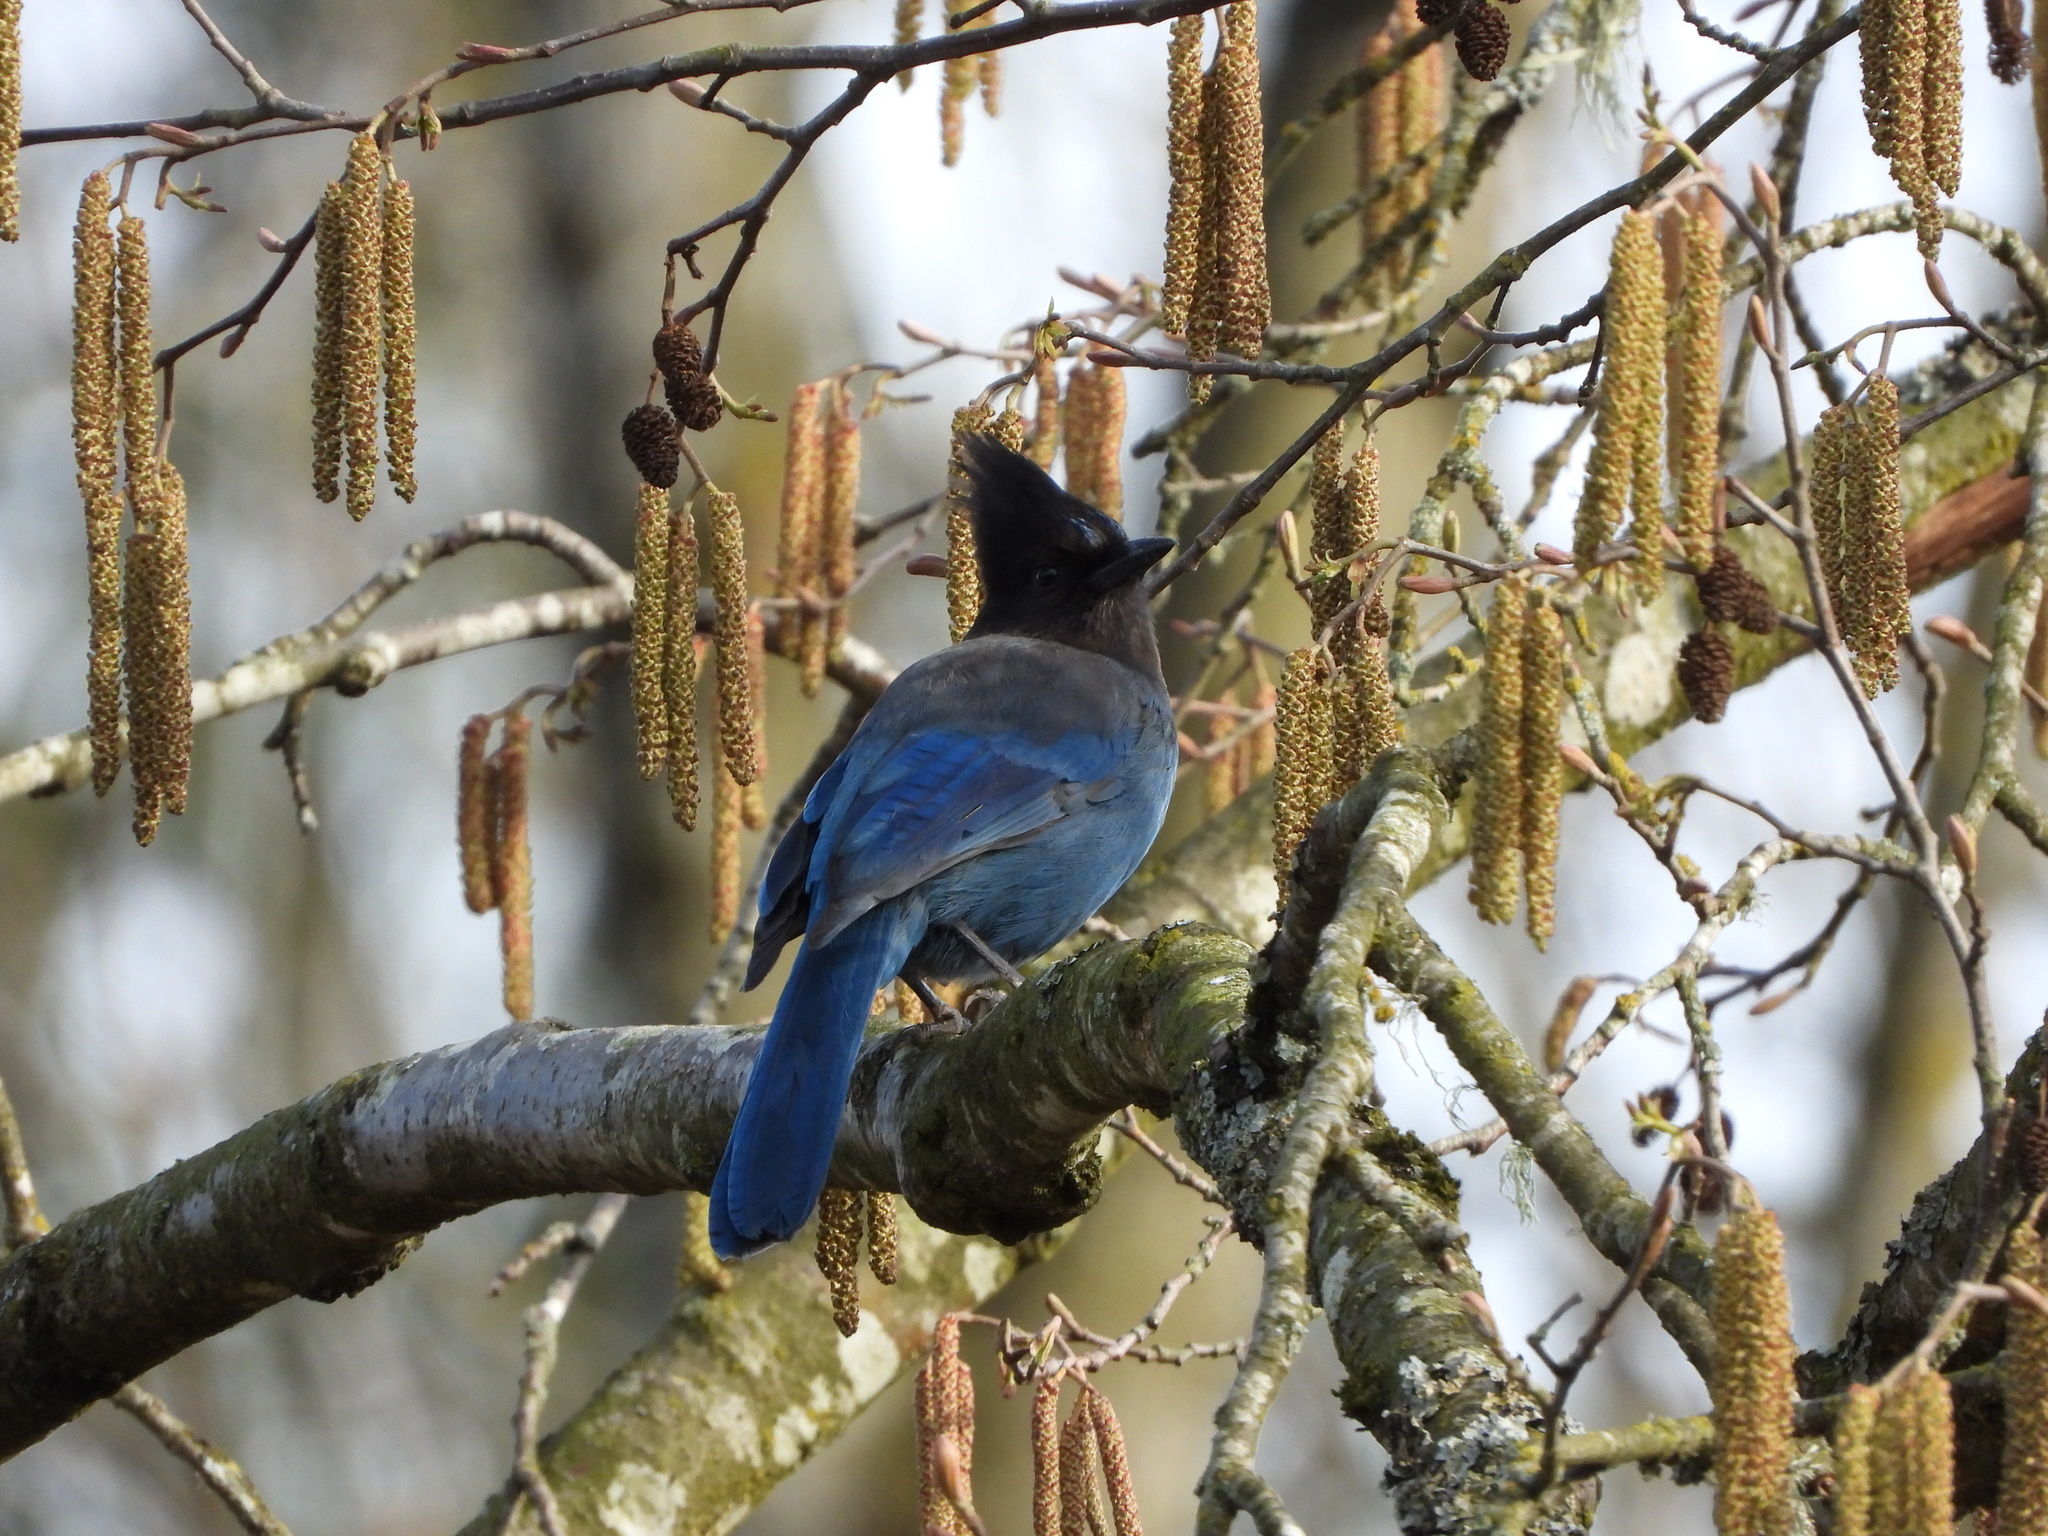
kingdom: Animalia
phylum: Chordata
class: Aves
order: Passeriformes
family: Corvidae
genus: Cyanocitta
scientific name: Cyanocitta stelleri
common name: Steller's jay
